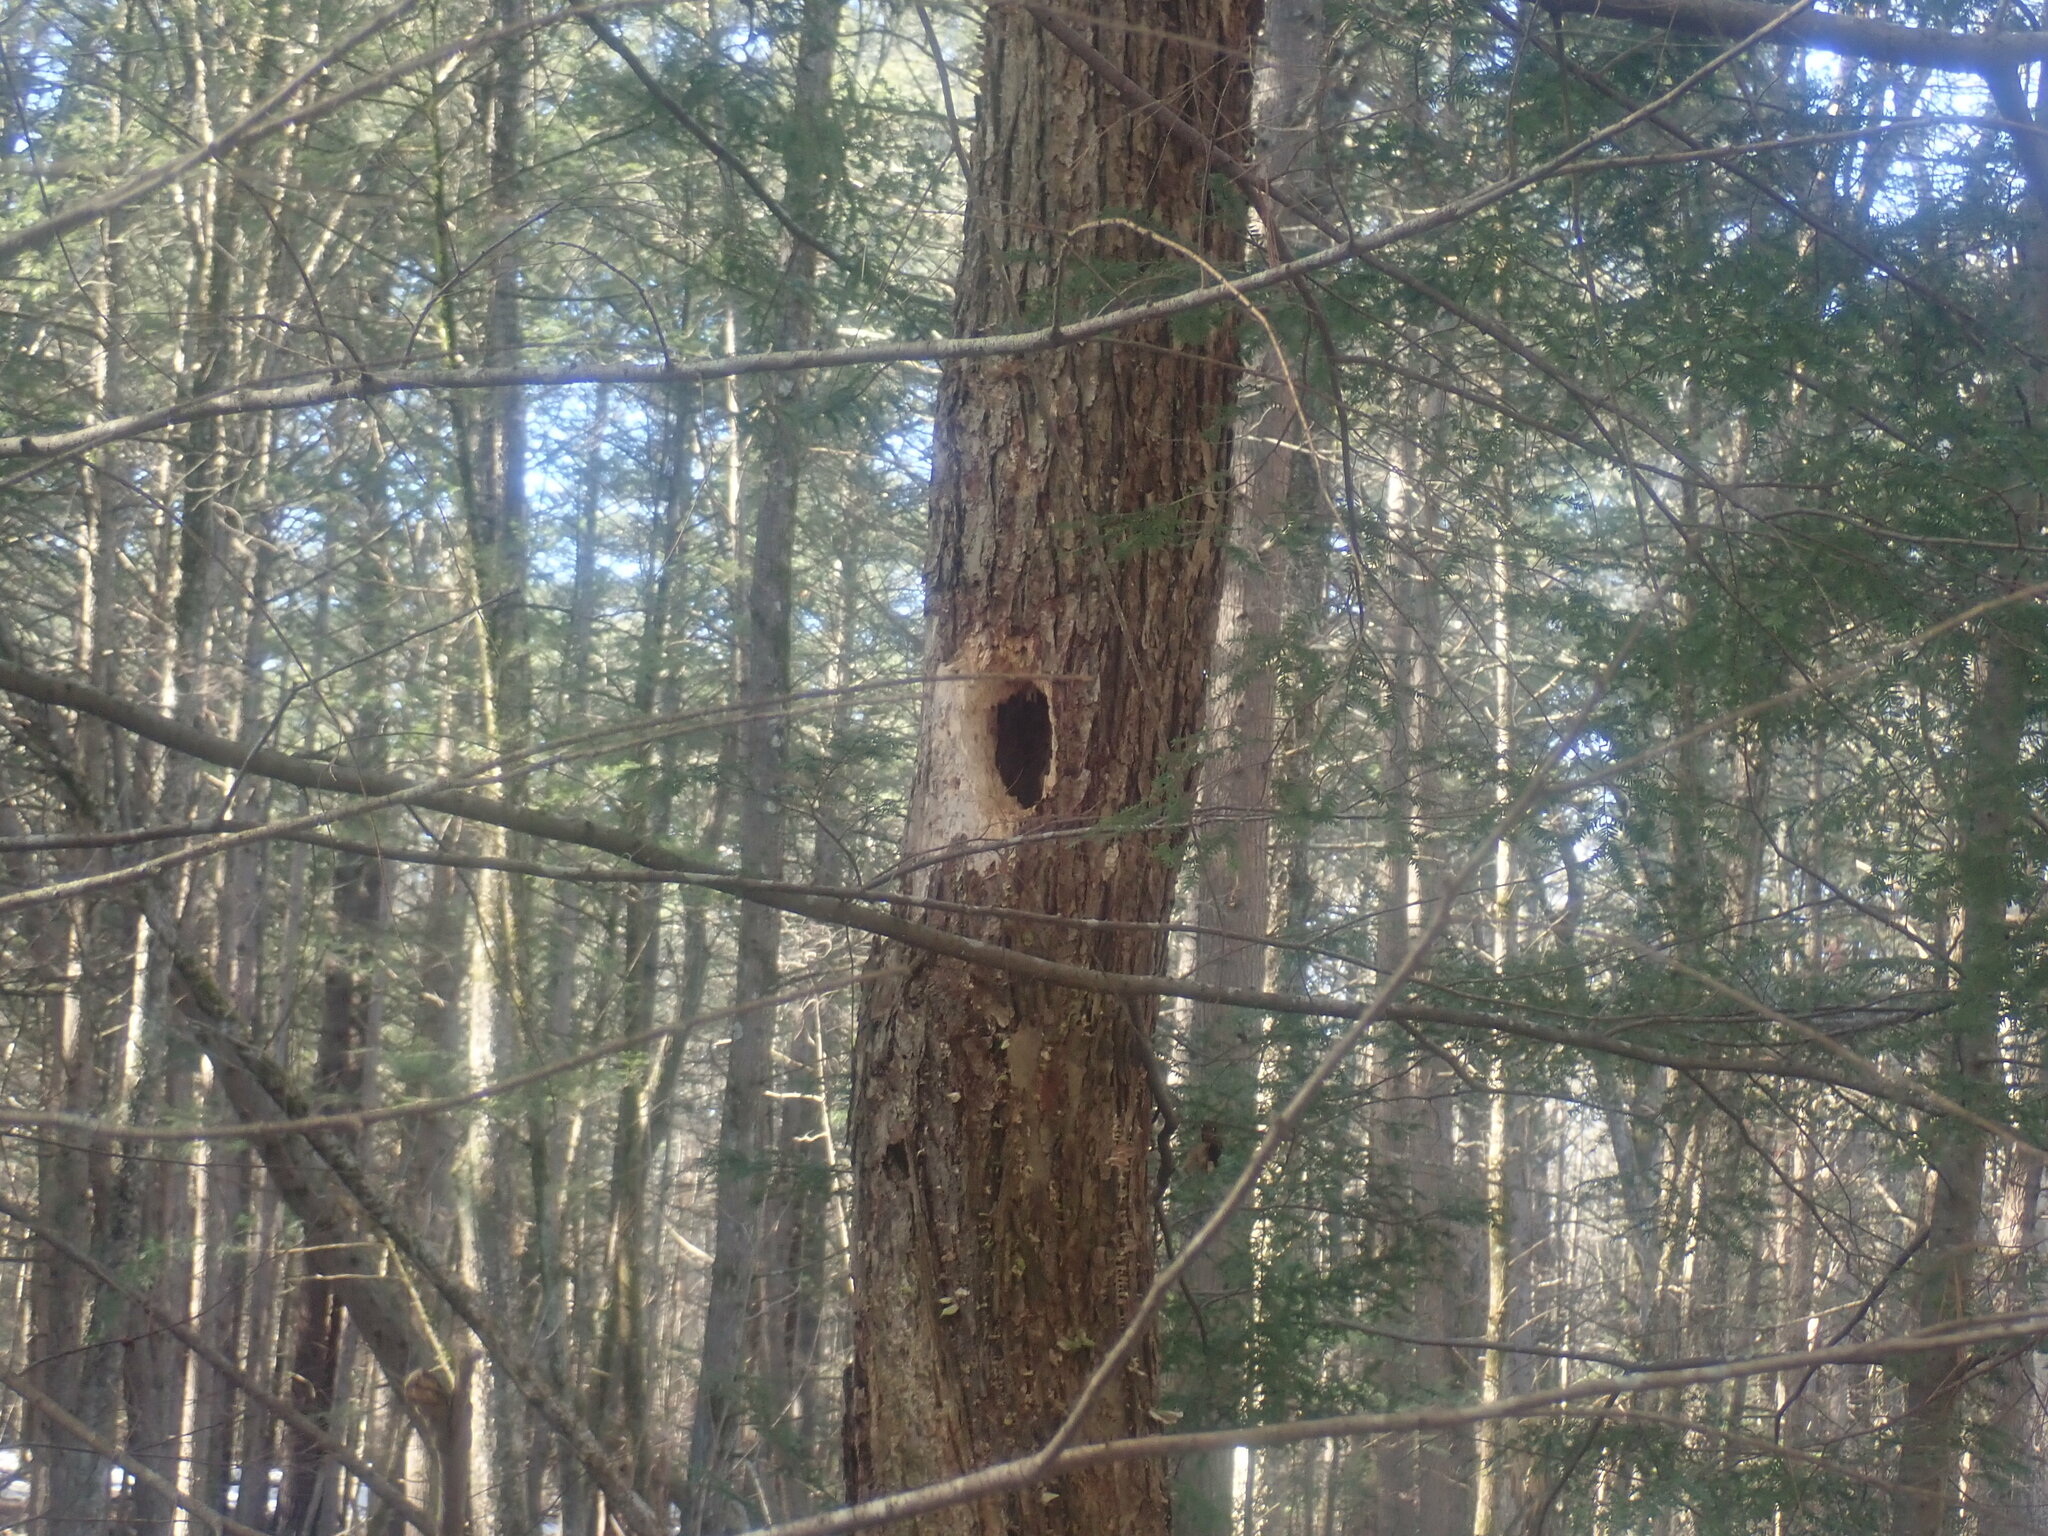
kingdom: Animalia
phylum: Chordata
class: Aves
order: Piciformes
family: Picidae
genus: Dryocopus
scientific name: Dryocopus pileatus
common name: Pileated woodpecker
